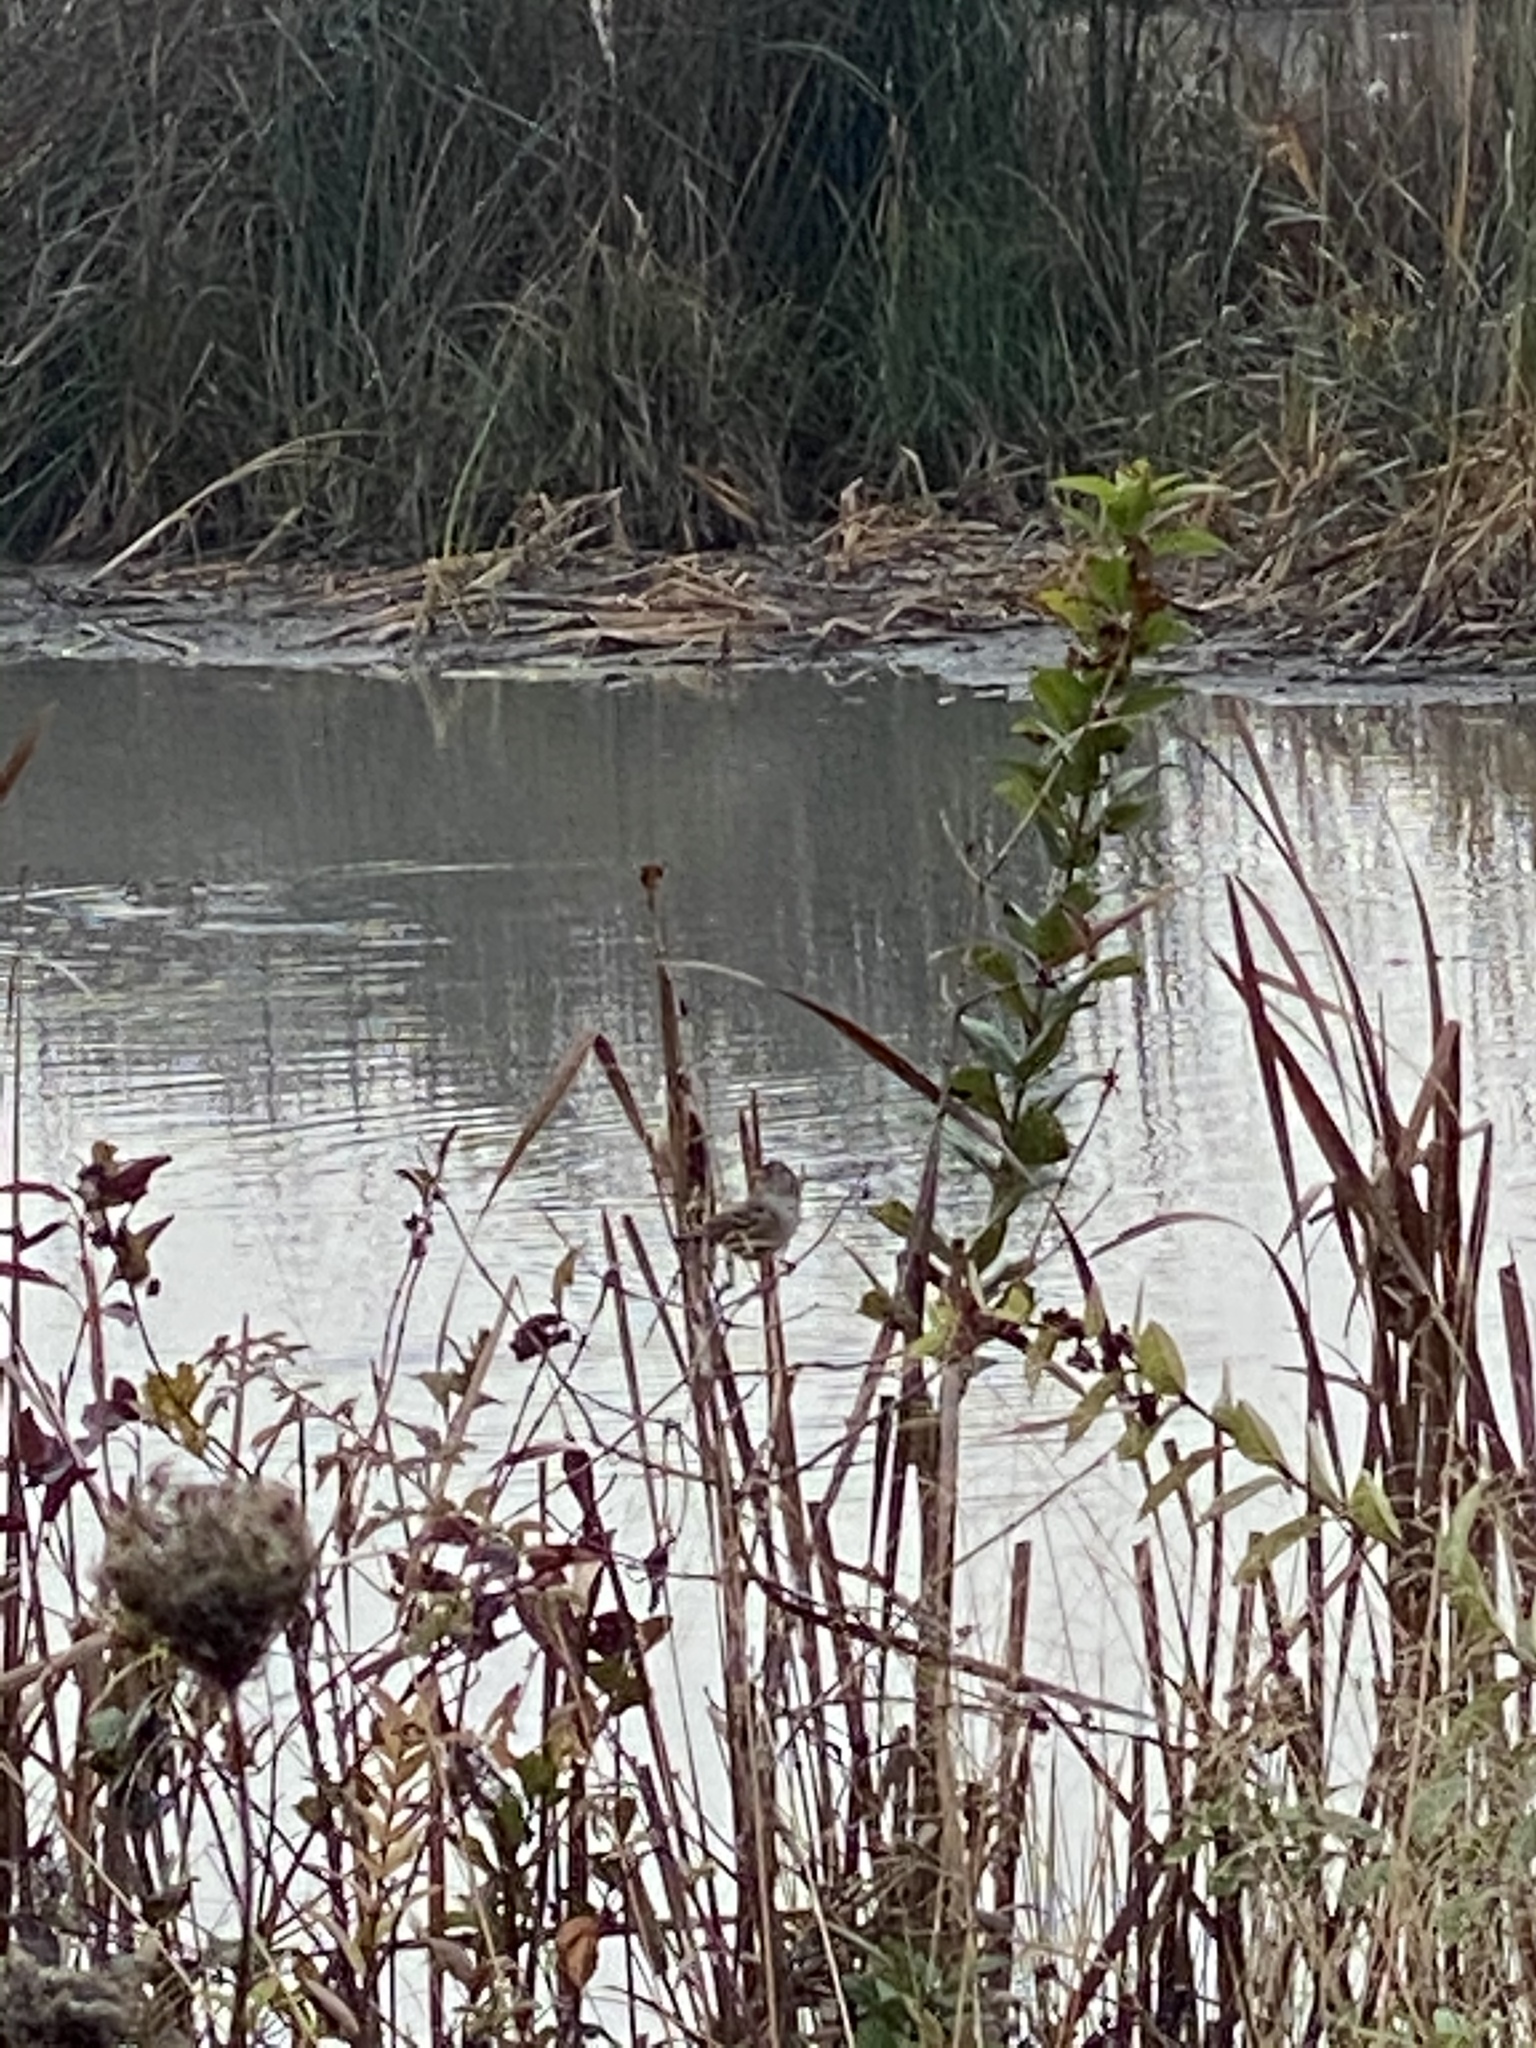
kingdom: Animalia
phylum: Chordata
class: Aves
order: Passeriformes
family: Passerellidae
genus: Zonotrichia
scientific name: Zonotrichia leucophrys
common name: White-crowned sparrow
